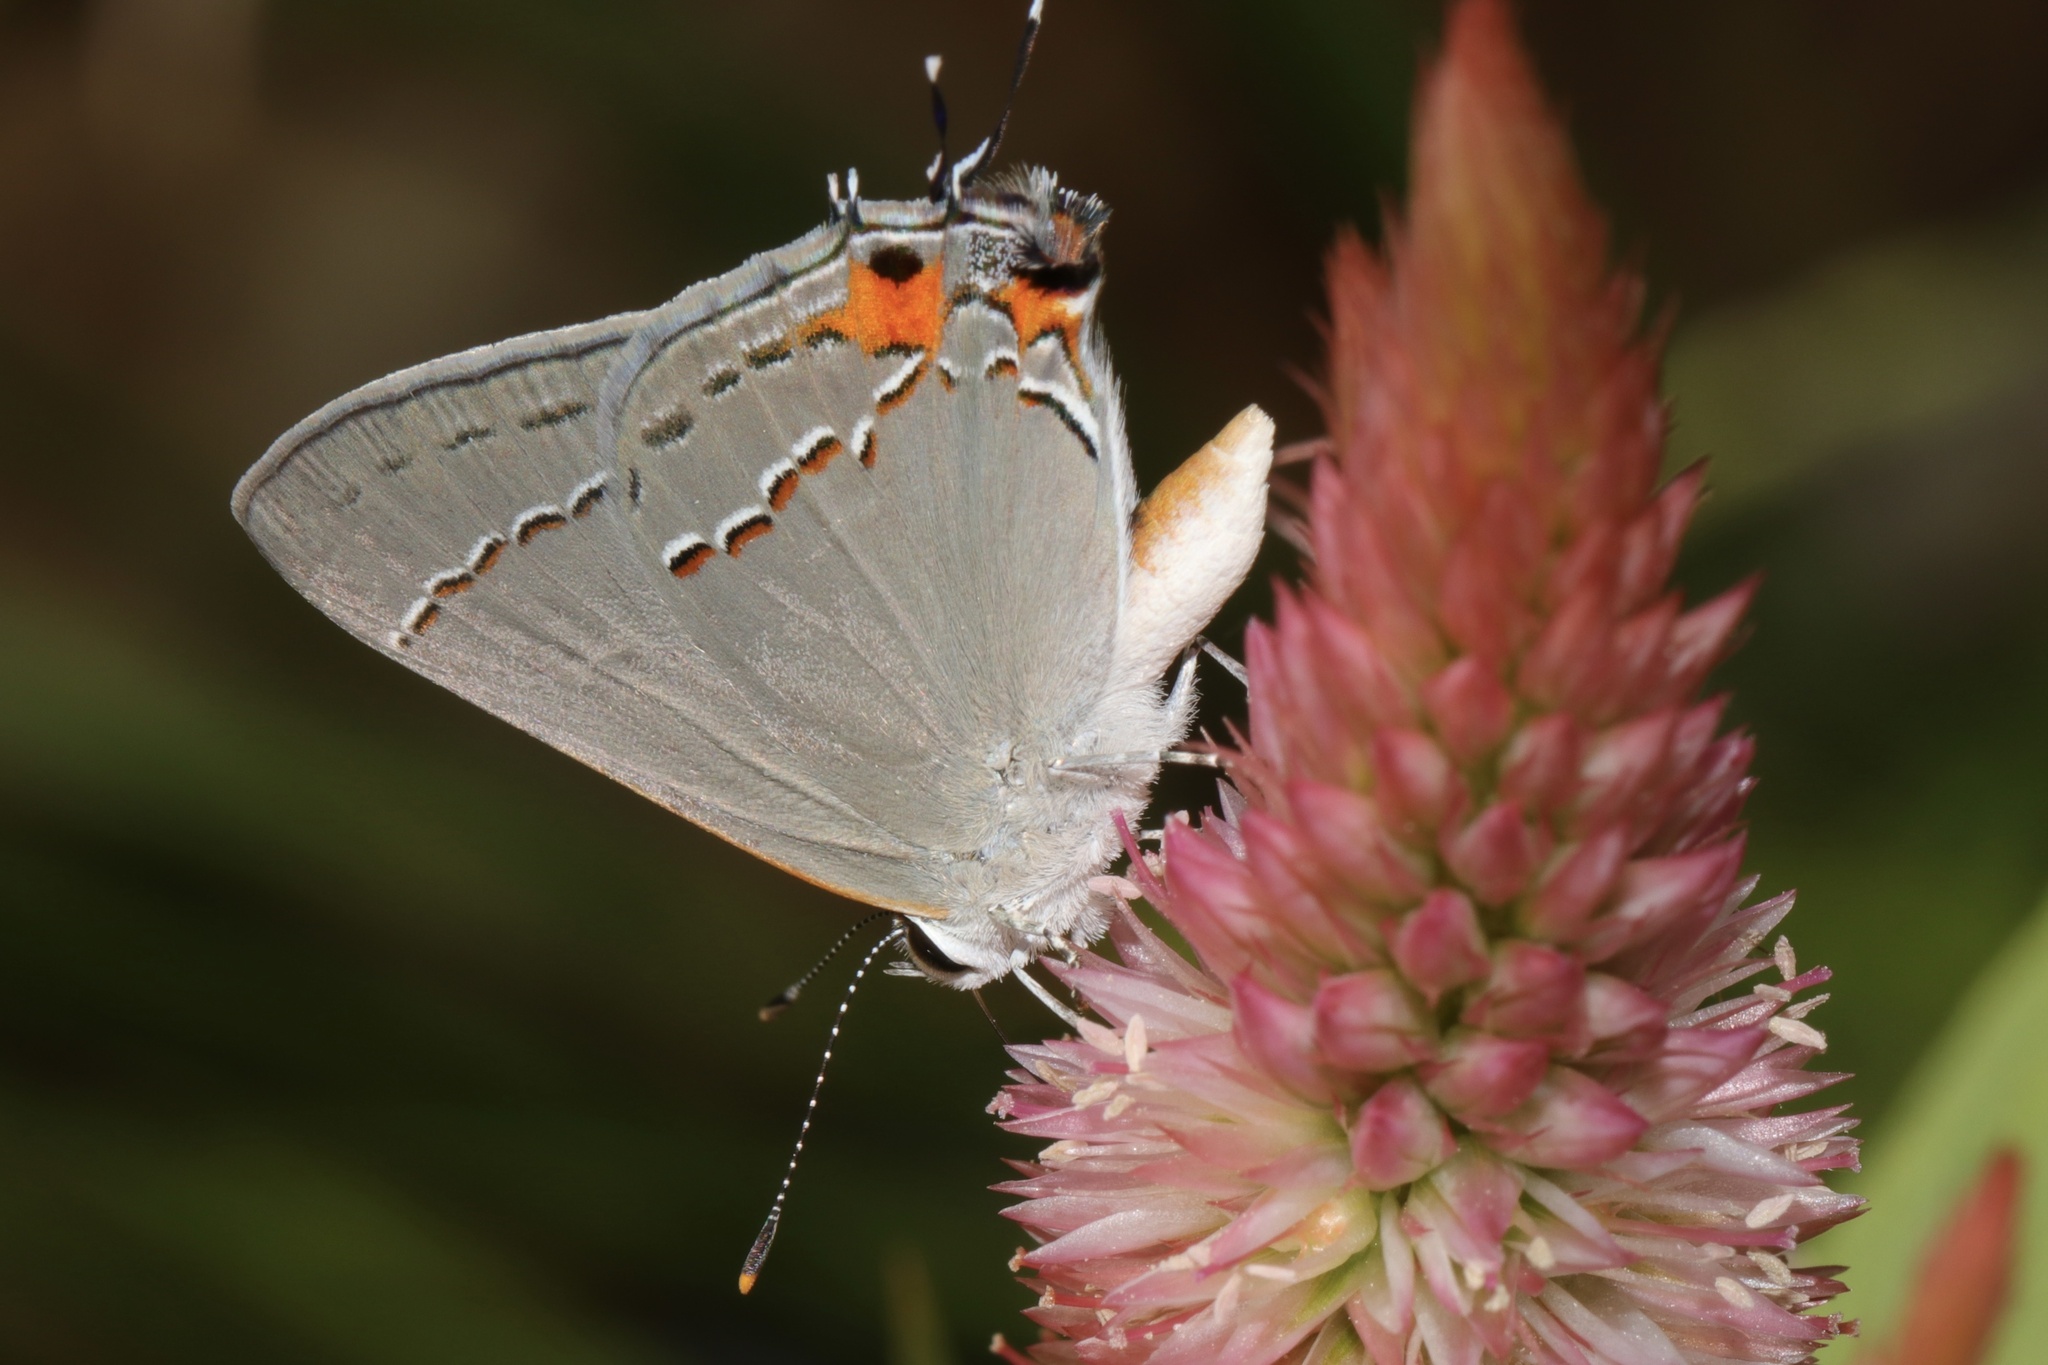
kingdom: Animalia
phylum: Arthropoda
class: Insecta
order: Lepidoptera
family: Lycaenidae
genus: Strymon
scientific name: Strymon melinus
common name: Gray hairstreak
